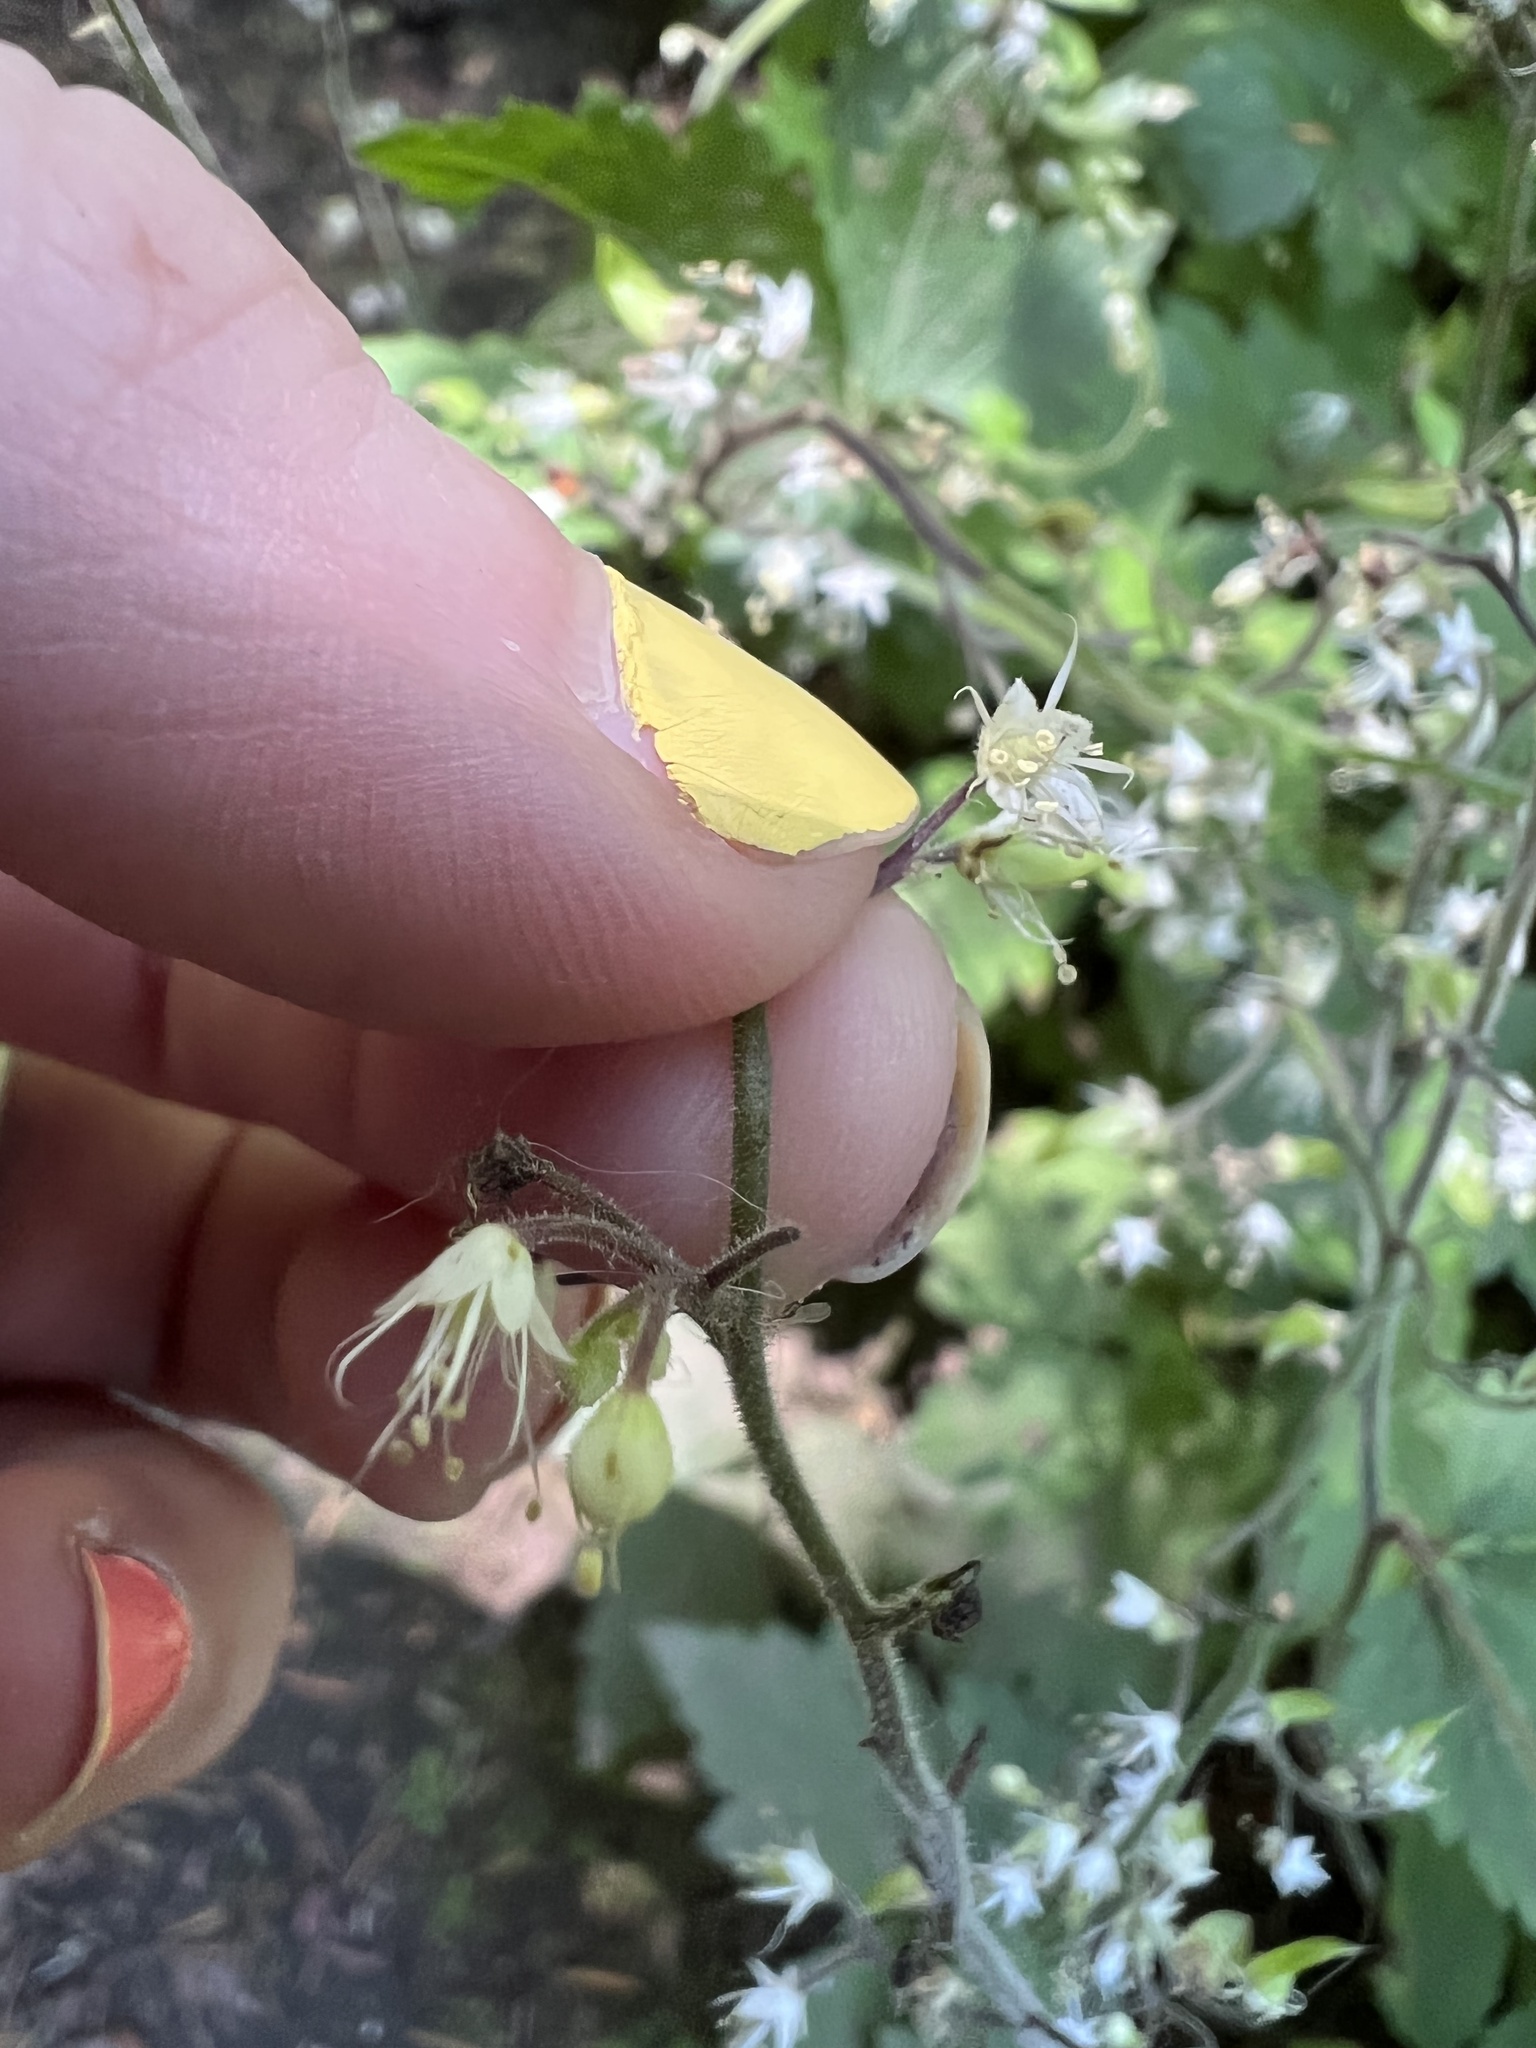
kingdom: Plantae
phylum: Tracheophyta
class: Magnoliopsida
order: Saxifragales
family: Saxifragaceae
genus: Tiarella
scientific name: Tiarella trifoliata
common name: Sugar-scoop
